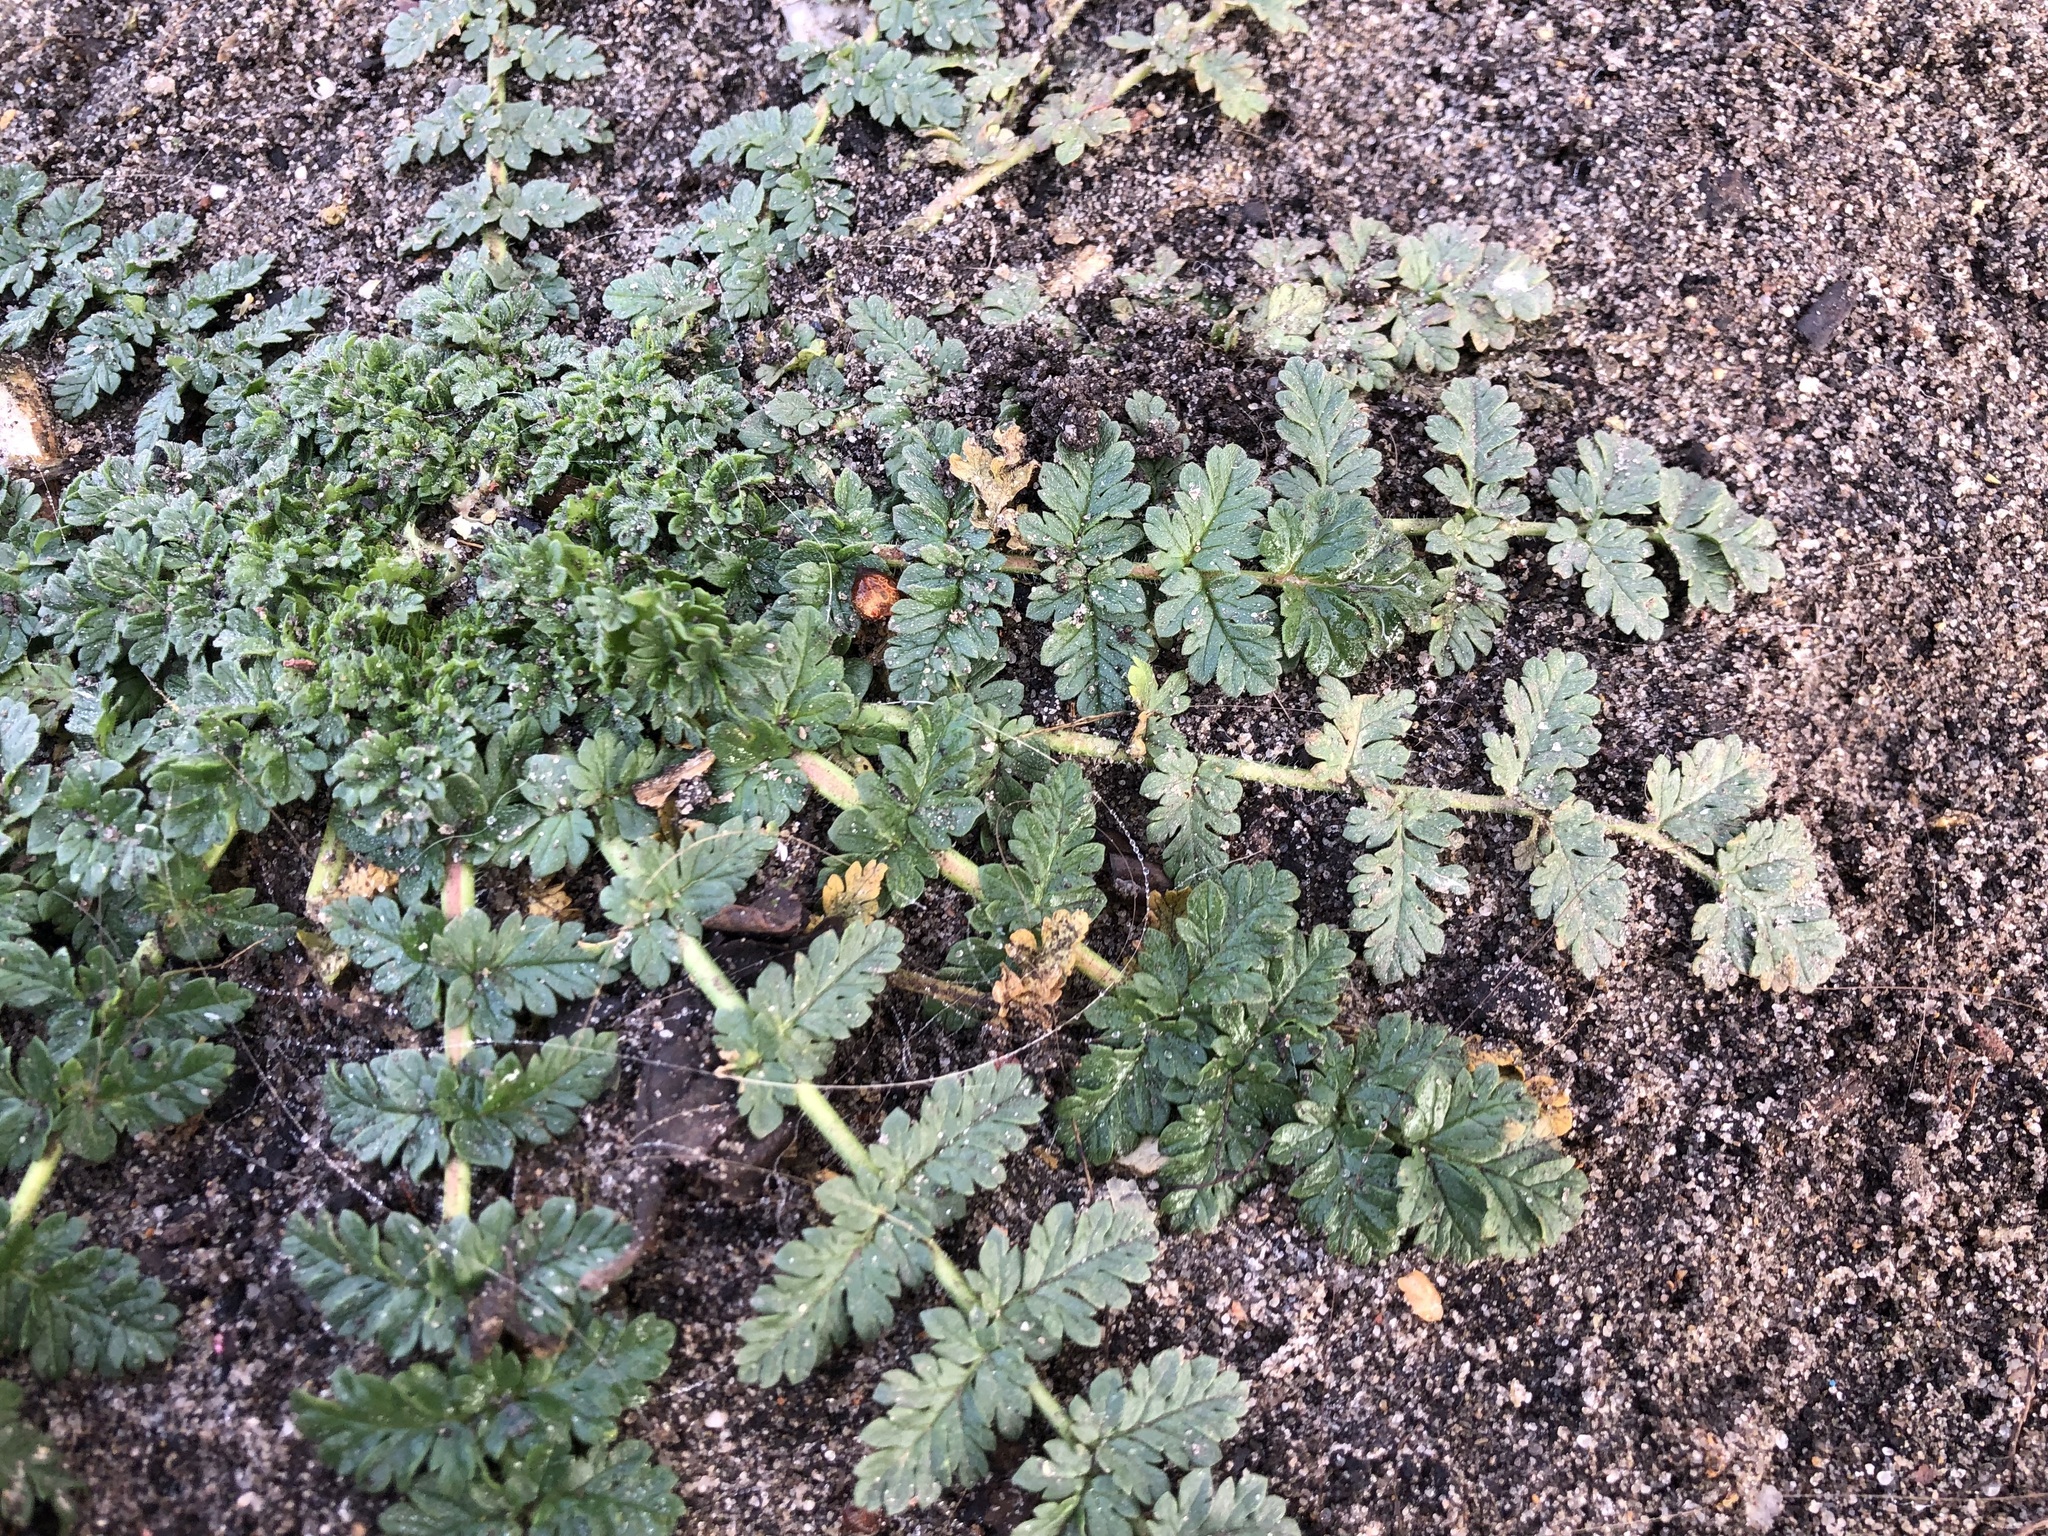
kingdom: Plantae
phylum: Tracheophyta
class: Magnoliopsida
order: Geraniales
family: Geraniaceae
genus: Erodium
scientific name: Erodium cicutarium
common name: Common stork's-bill
